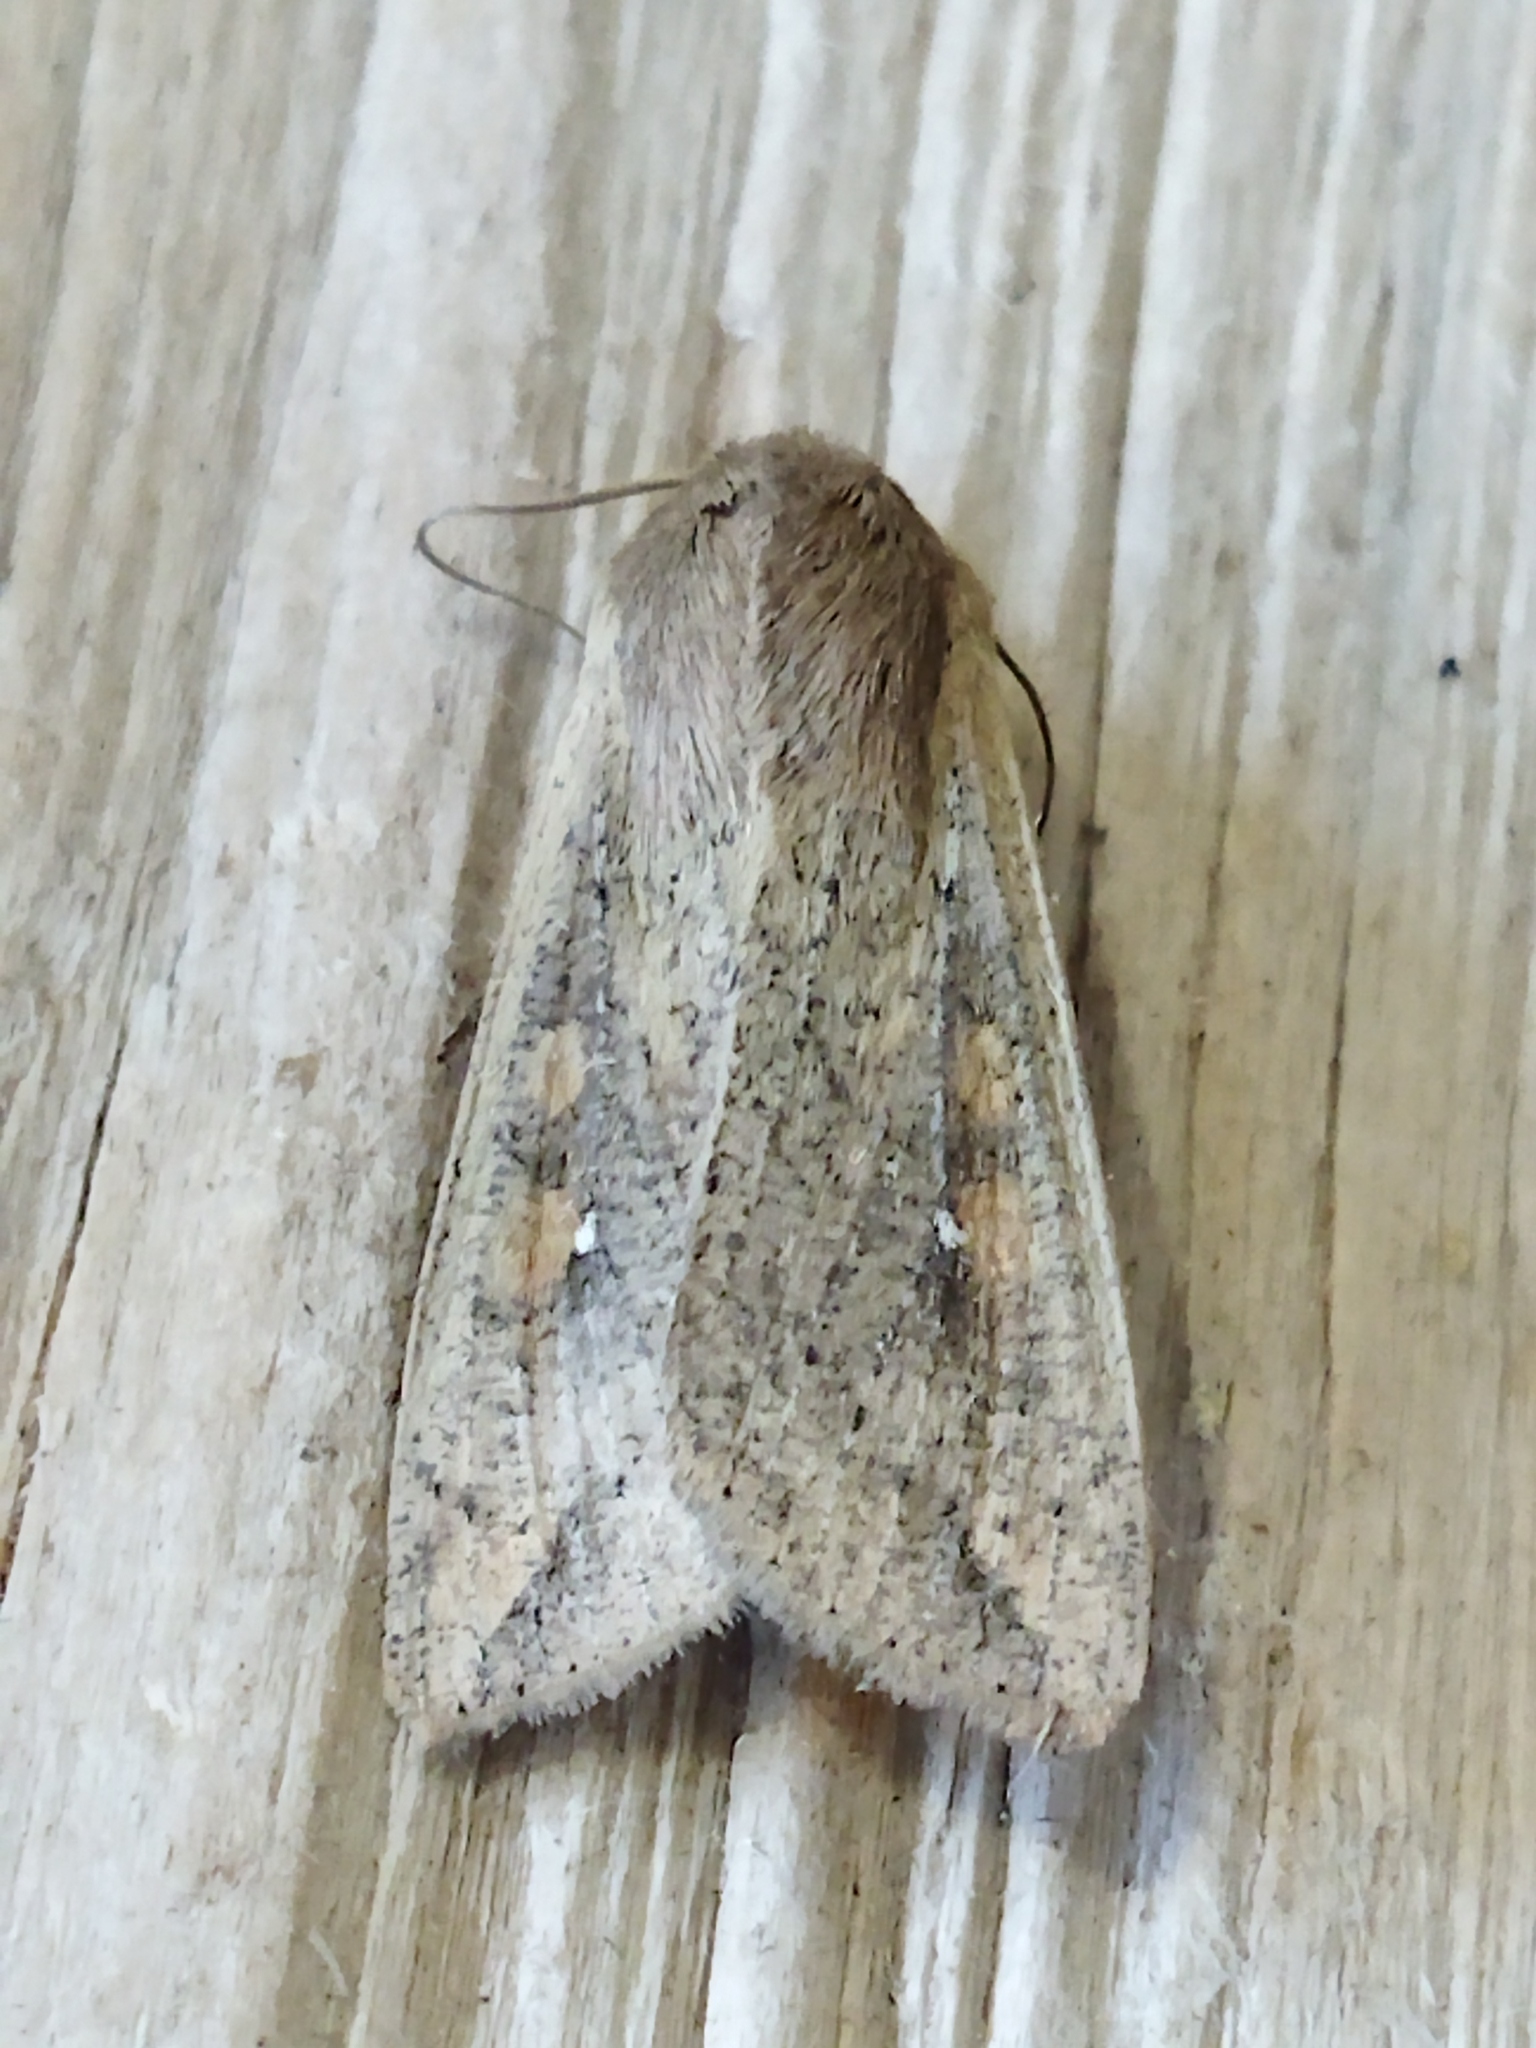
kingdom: Animalia
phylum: Arthropoda
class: Insecta
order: Lepidoptera
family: Noctuidae
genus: Mythimna
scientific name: Mythimna unipuncta
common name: White-speck
